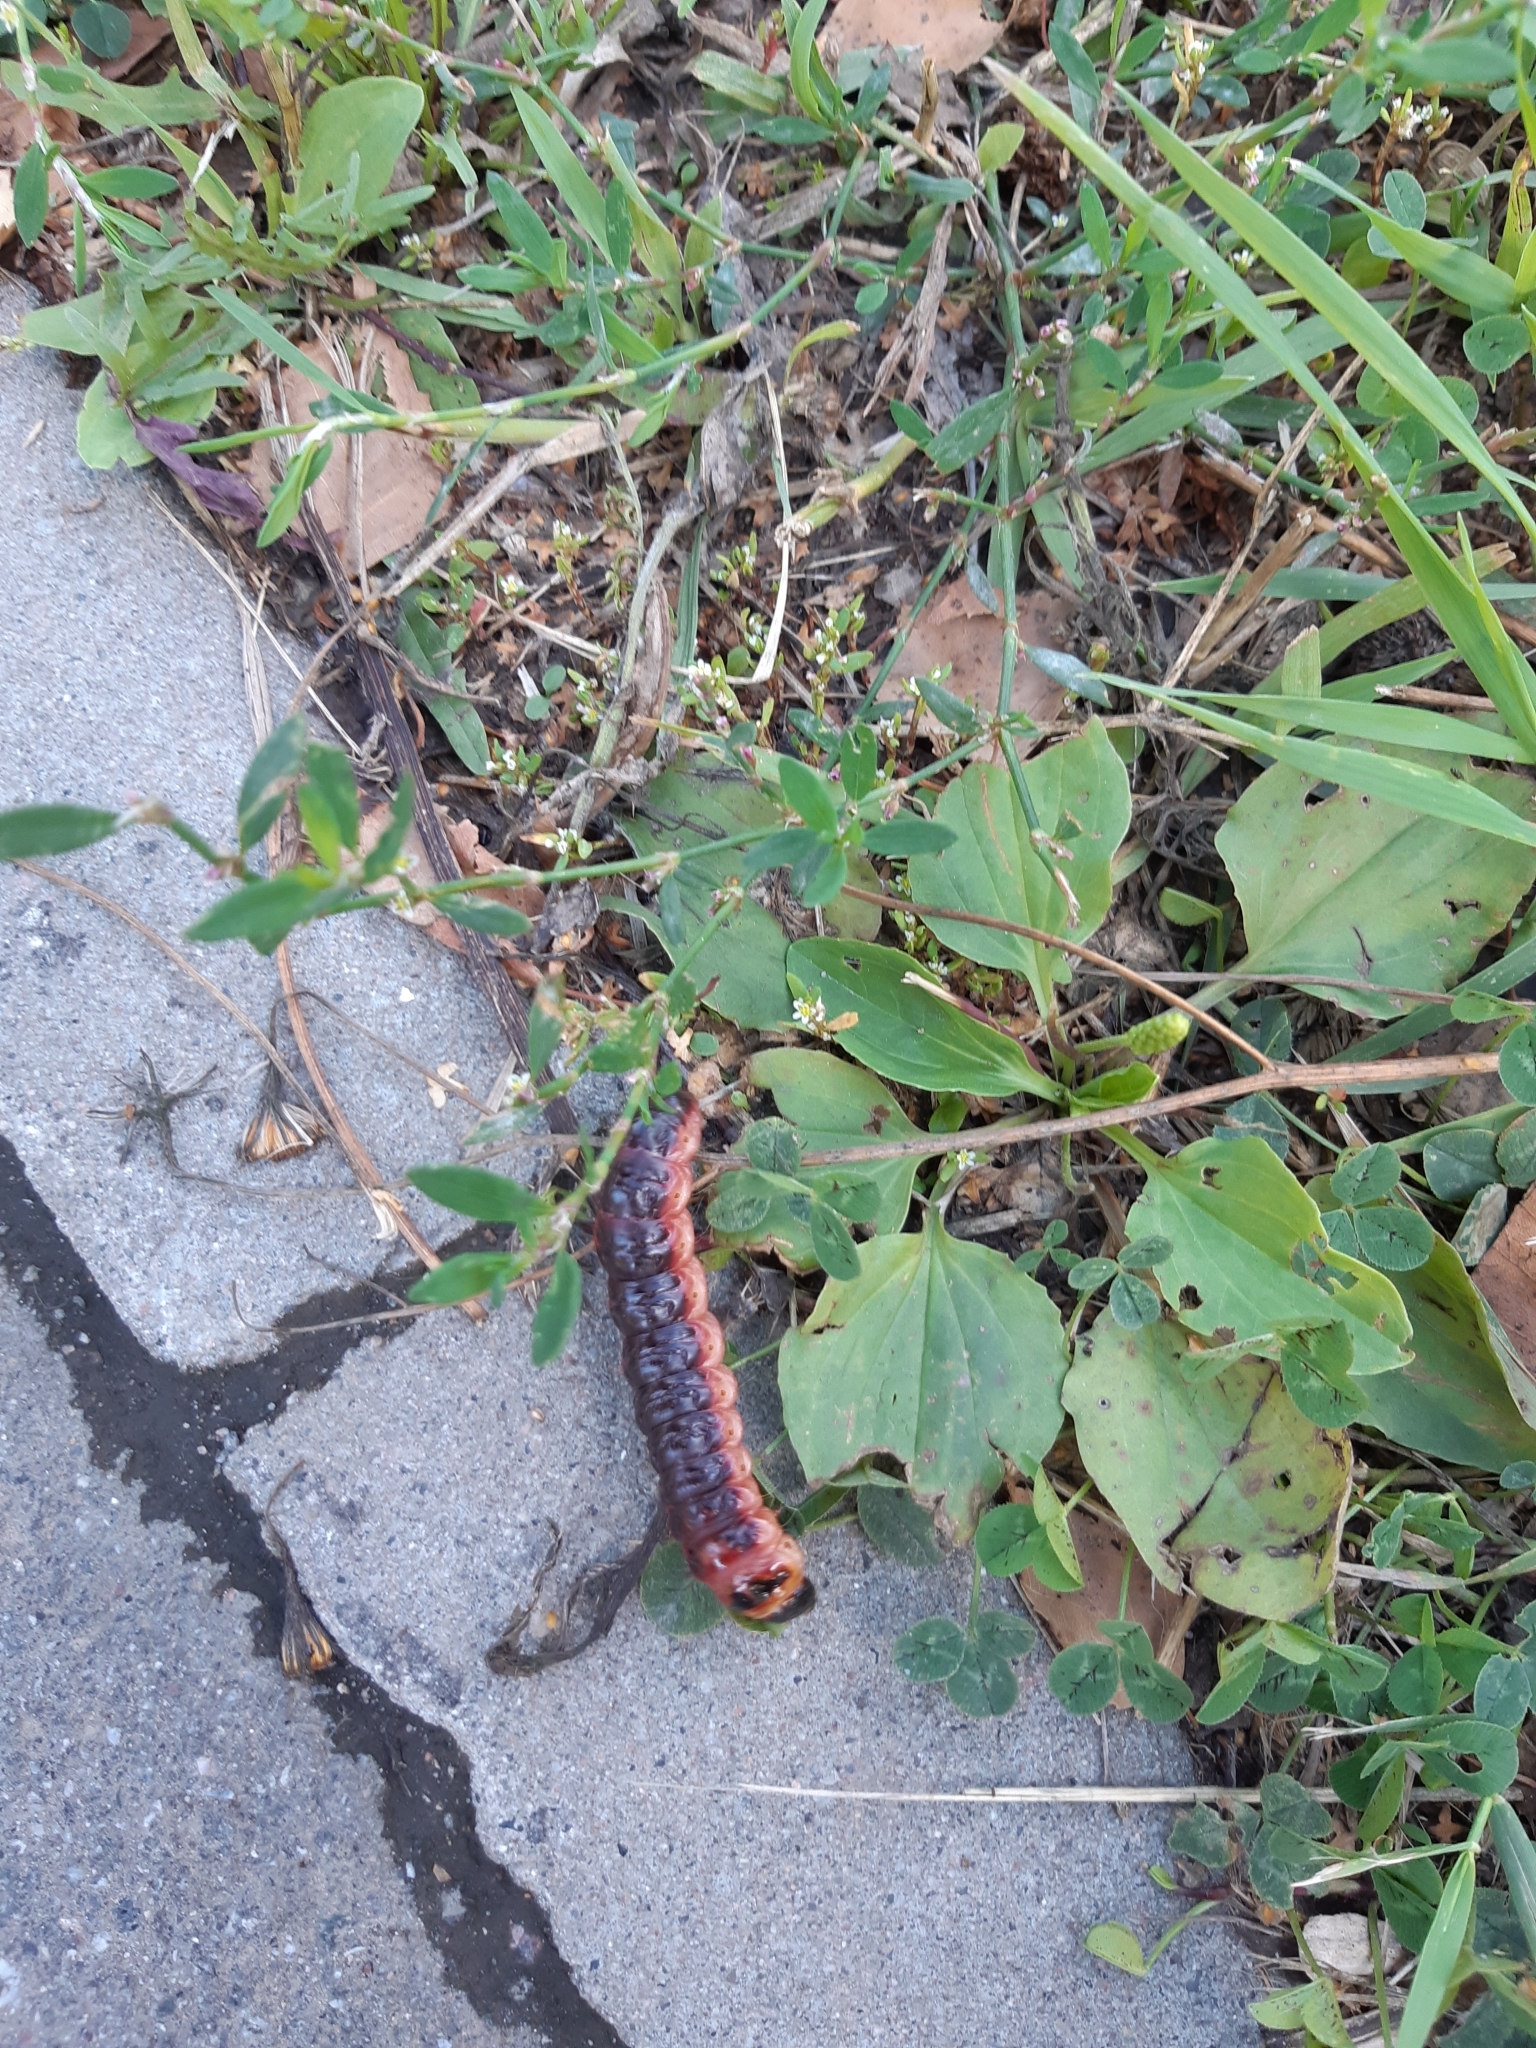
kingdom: Animalia
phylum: Arthropoda
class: Insecta
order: Lepidoptera
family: Cossidae
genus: Cossus
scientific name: Cossus cossus
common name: Goat moth
